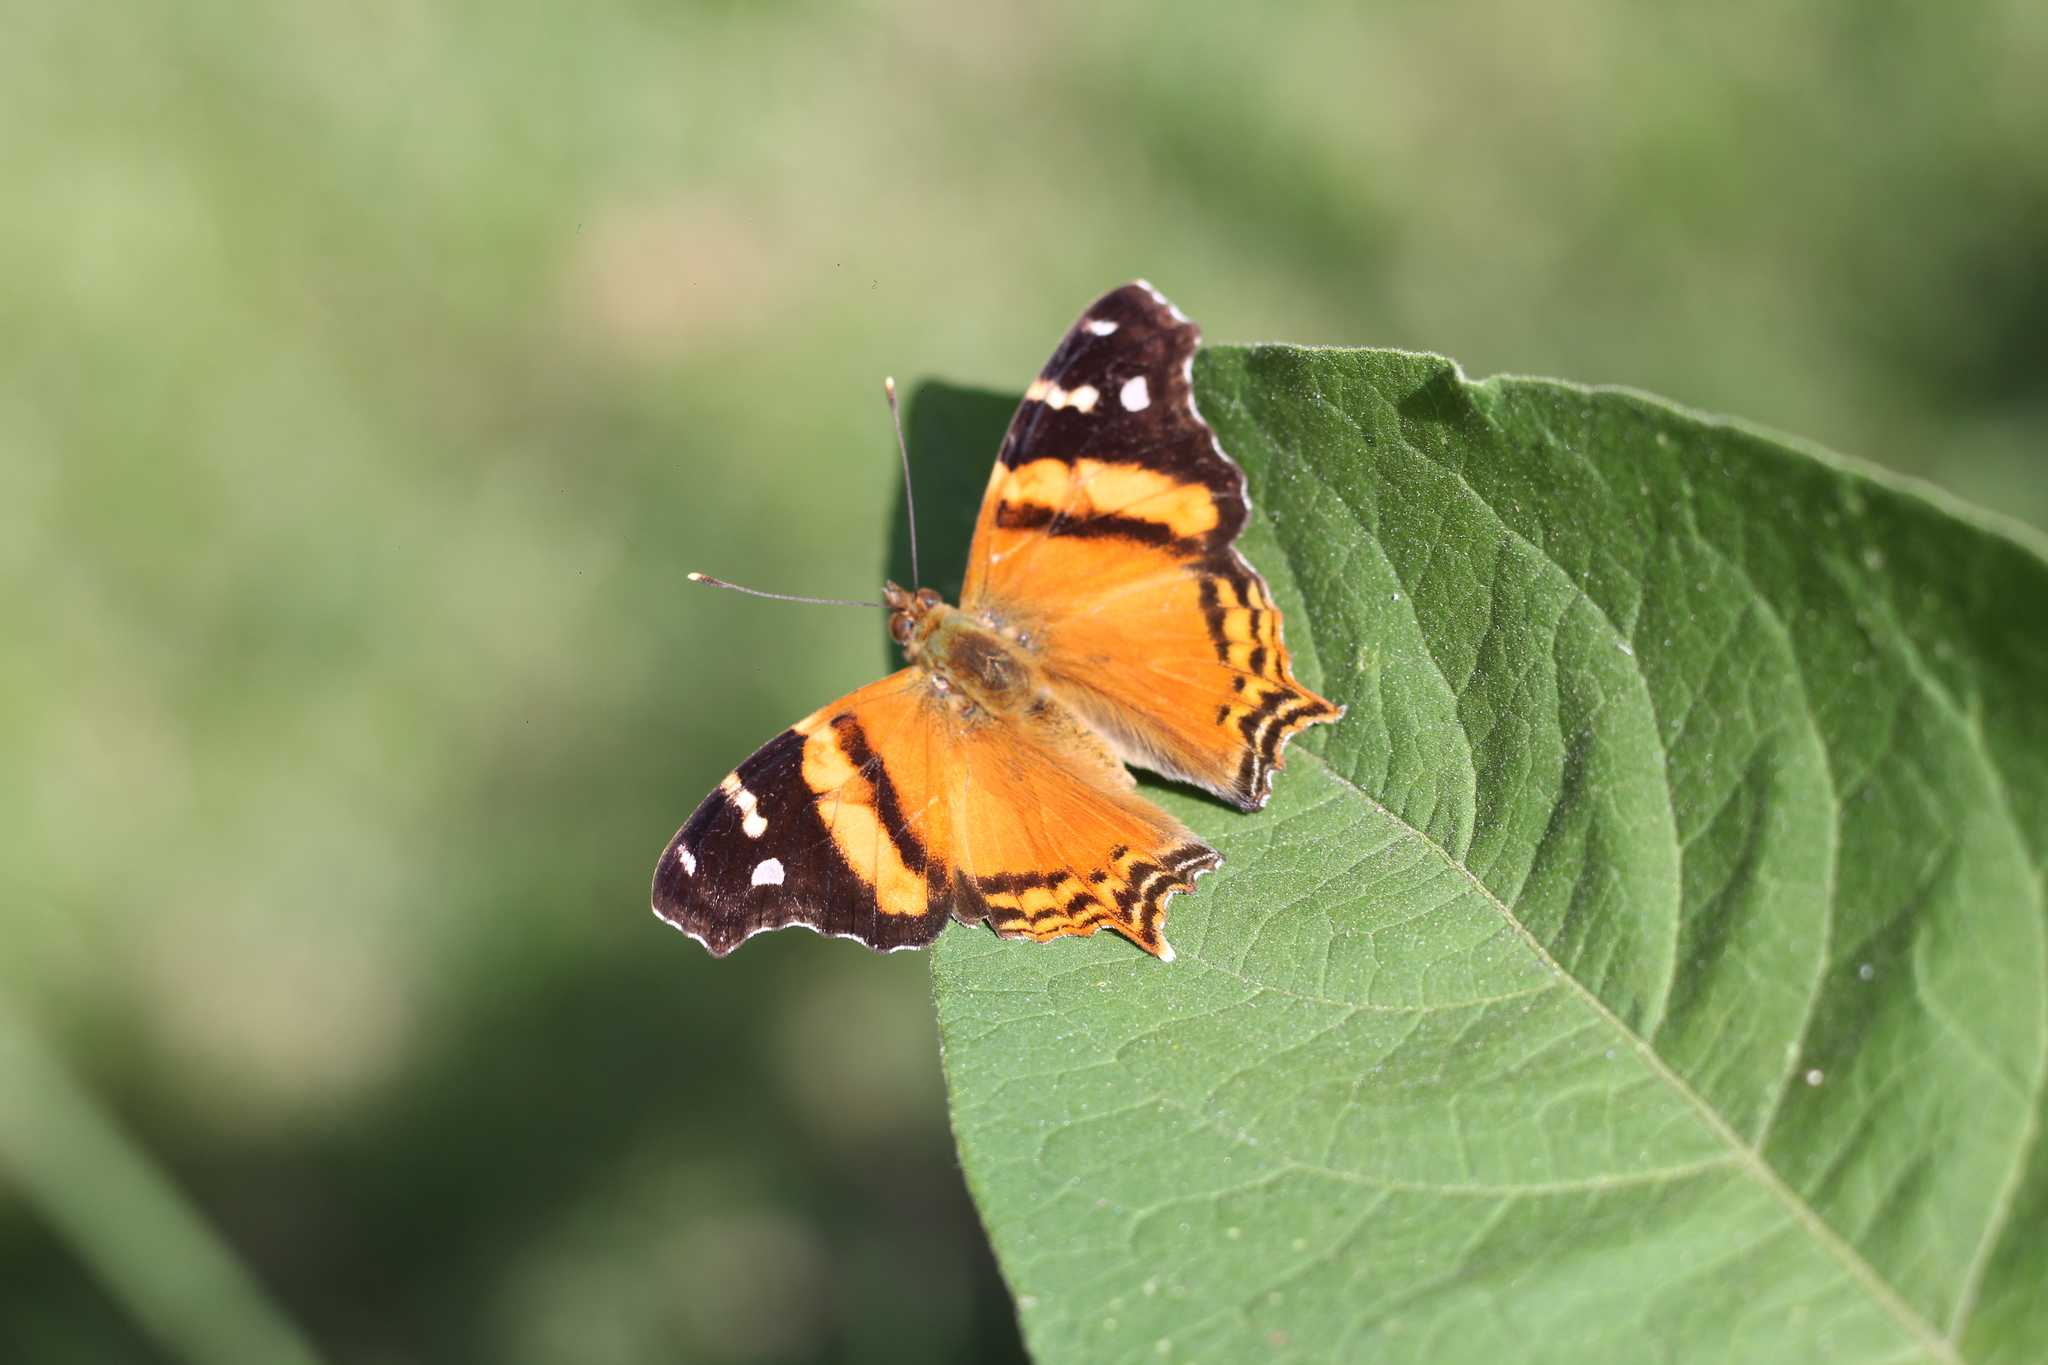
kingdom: Animalia
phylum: Arthropoda
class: Insecta
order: Lepidoptera
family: Nymphalidae
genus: Hypanartia
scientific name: Hypanartia bella
